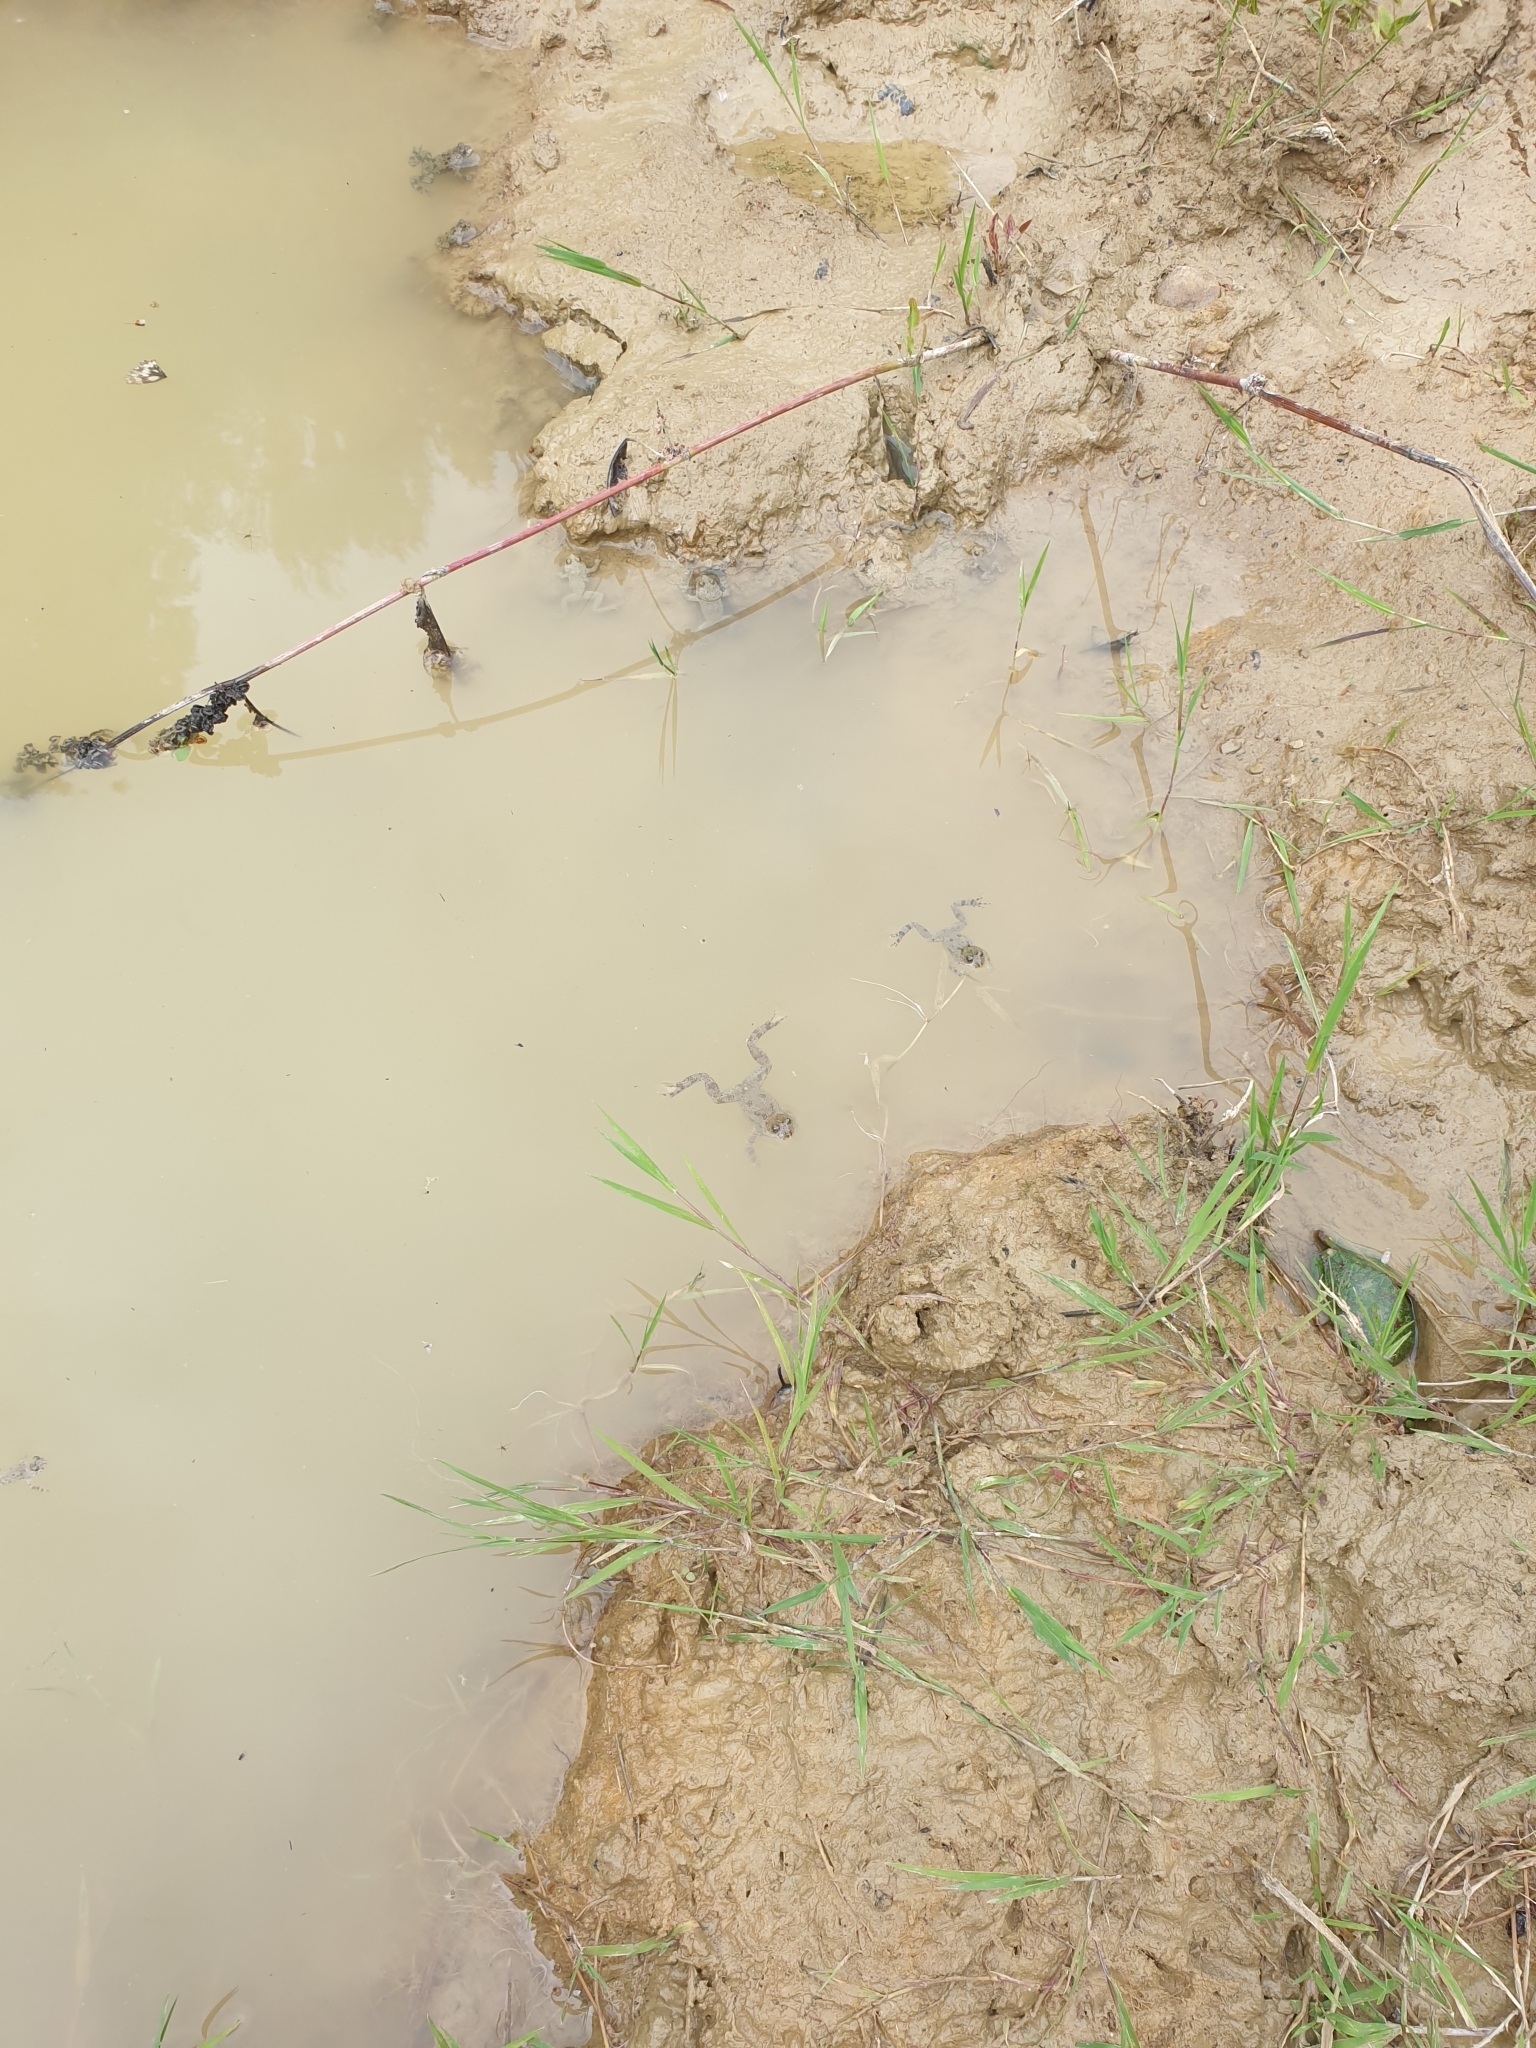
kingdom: Animalia
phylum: Chordata
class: Amphibia
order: Anura
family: Bombinatoridae
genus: Bombina
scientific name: Bombina variegata
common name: Yellow-bellied toad
